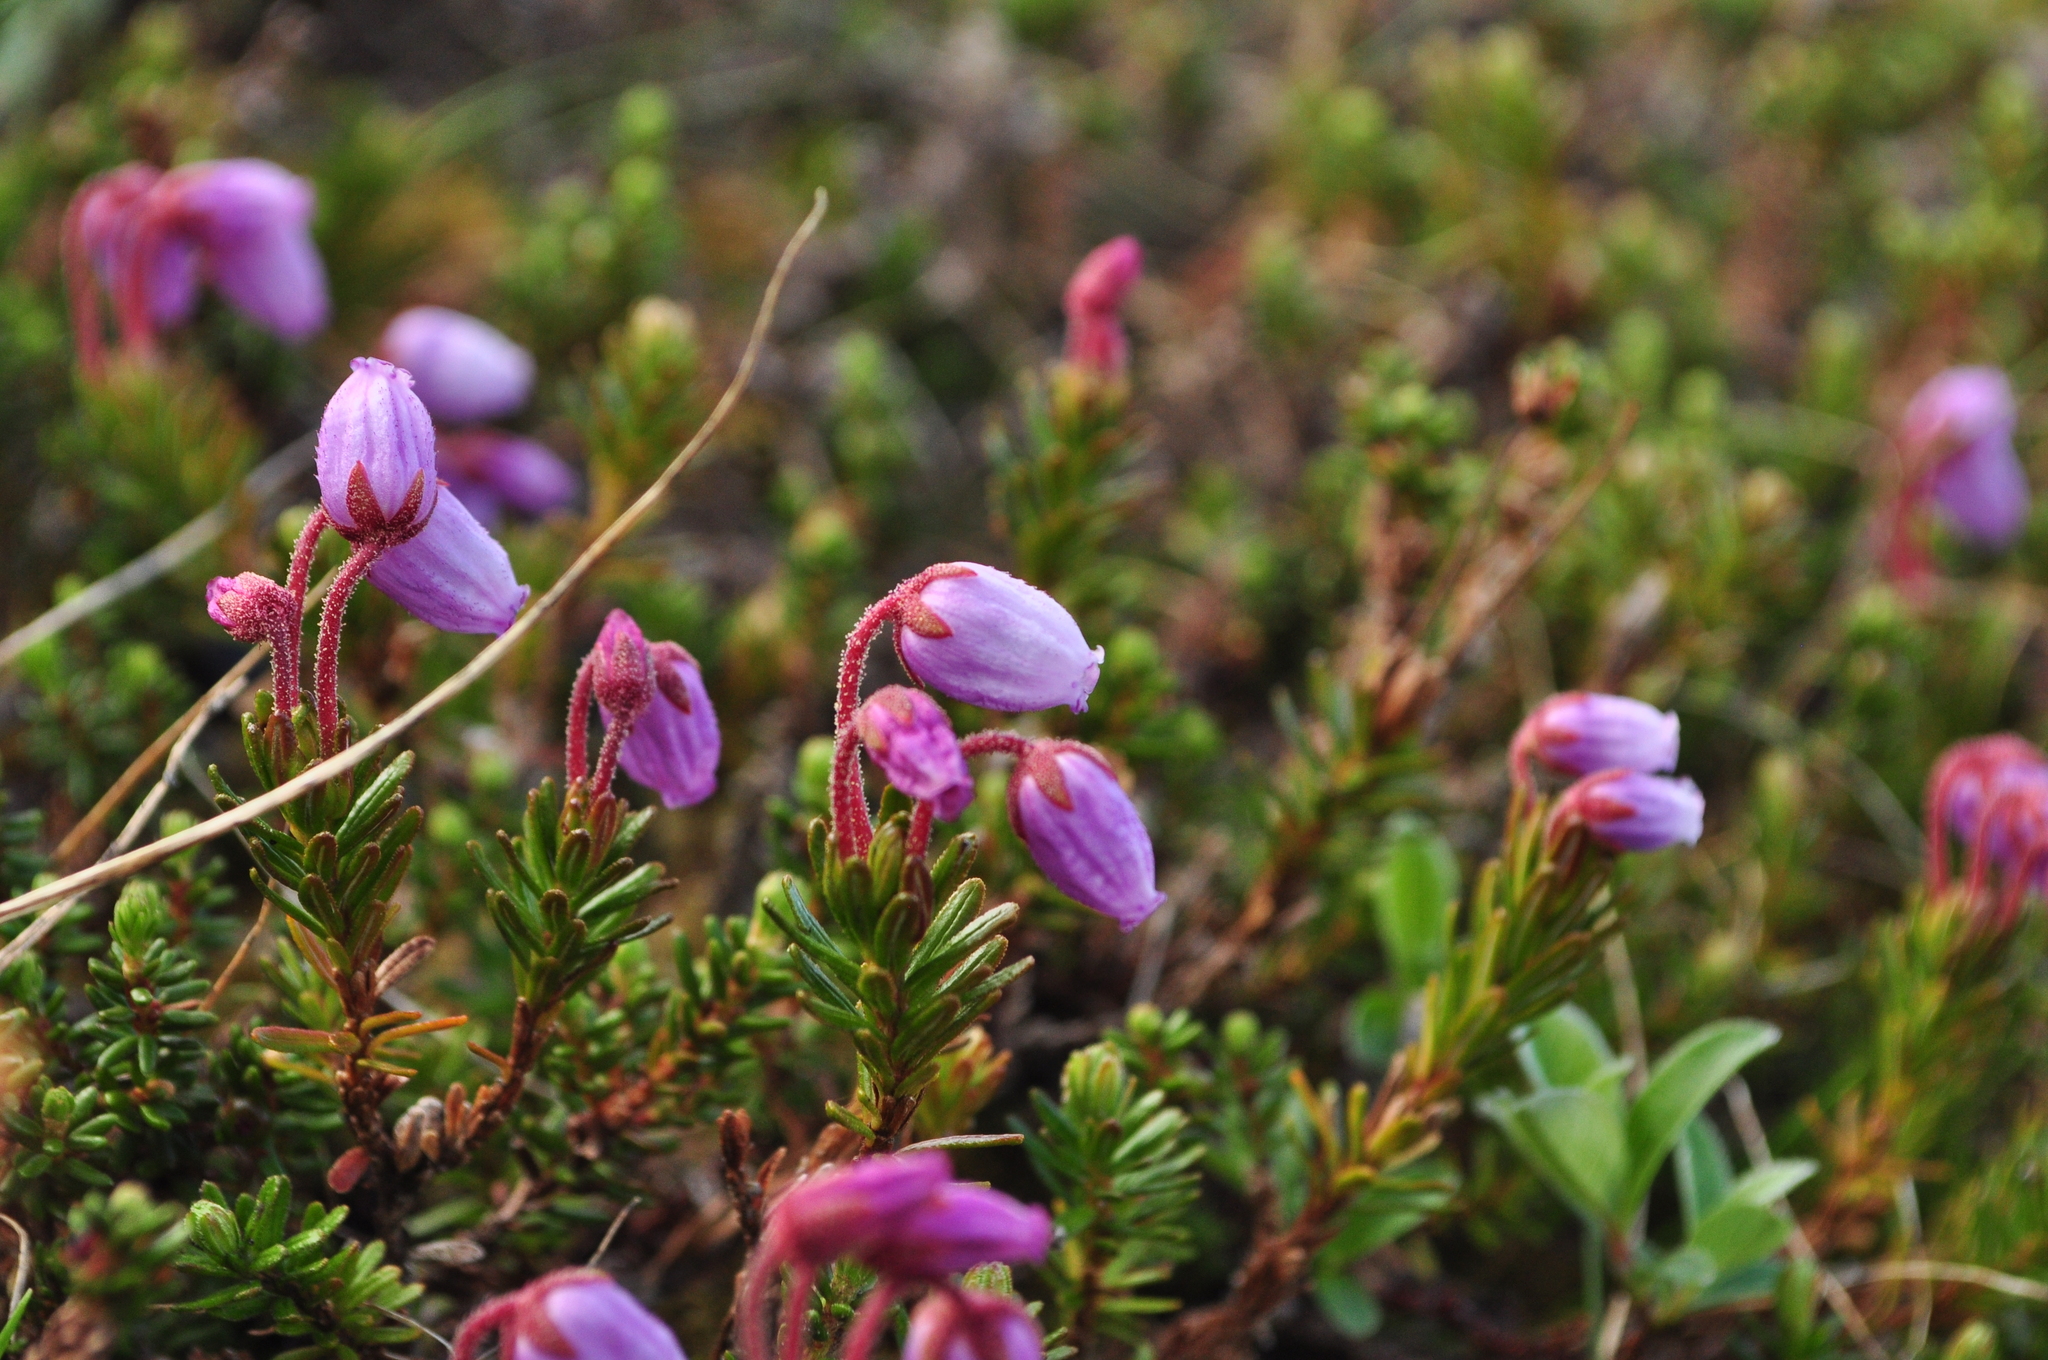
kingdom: Plantae
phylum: Tracheophyta
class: Magnoliopsida
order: Ericales
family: Ericaceae
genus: Phyllodoce
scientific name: Phyllodoce caerulea
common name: Blue heath
